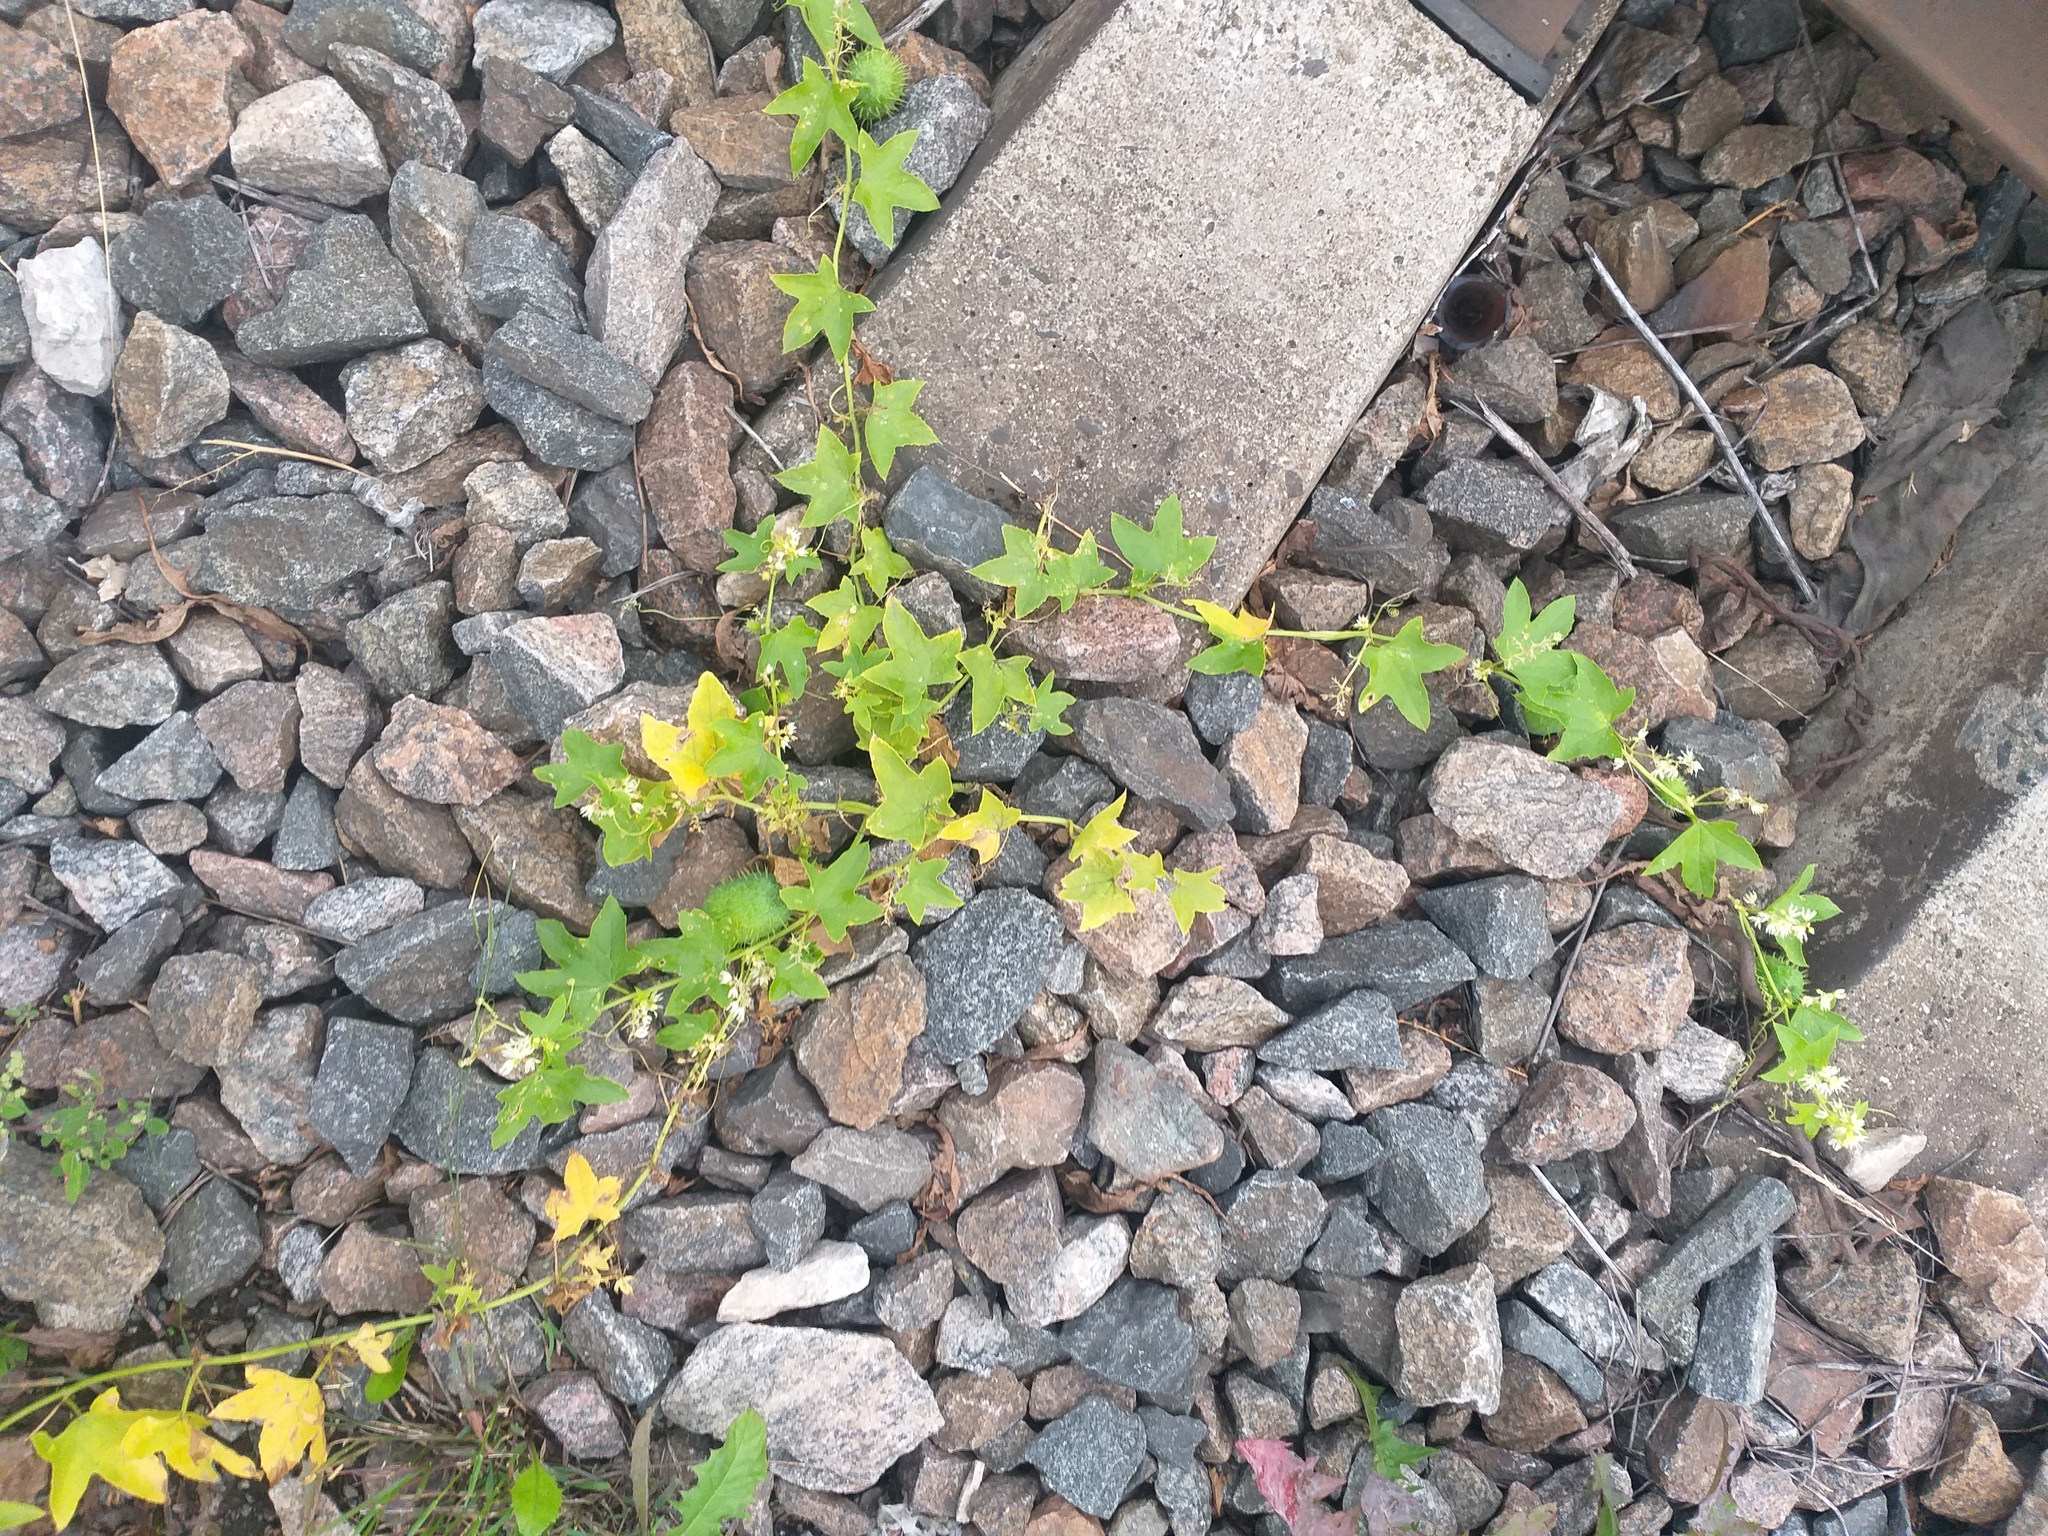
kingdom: Plantae
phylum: Tracheophyta
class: Magnoliopsida
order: Cucurbitales
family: Cucurbitaceae
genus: Echinocystis
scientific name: Echinocystis lobata
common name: Wild cucumber
